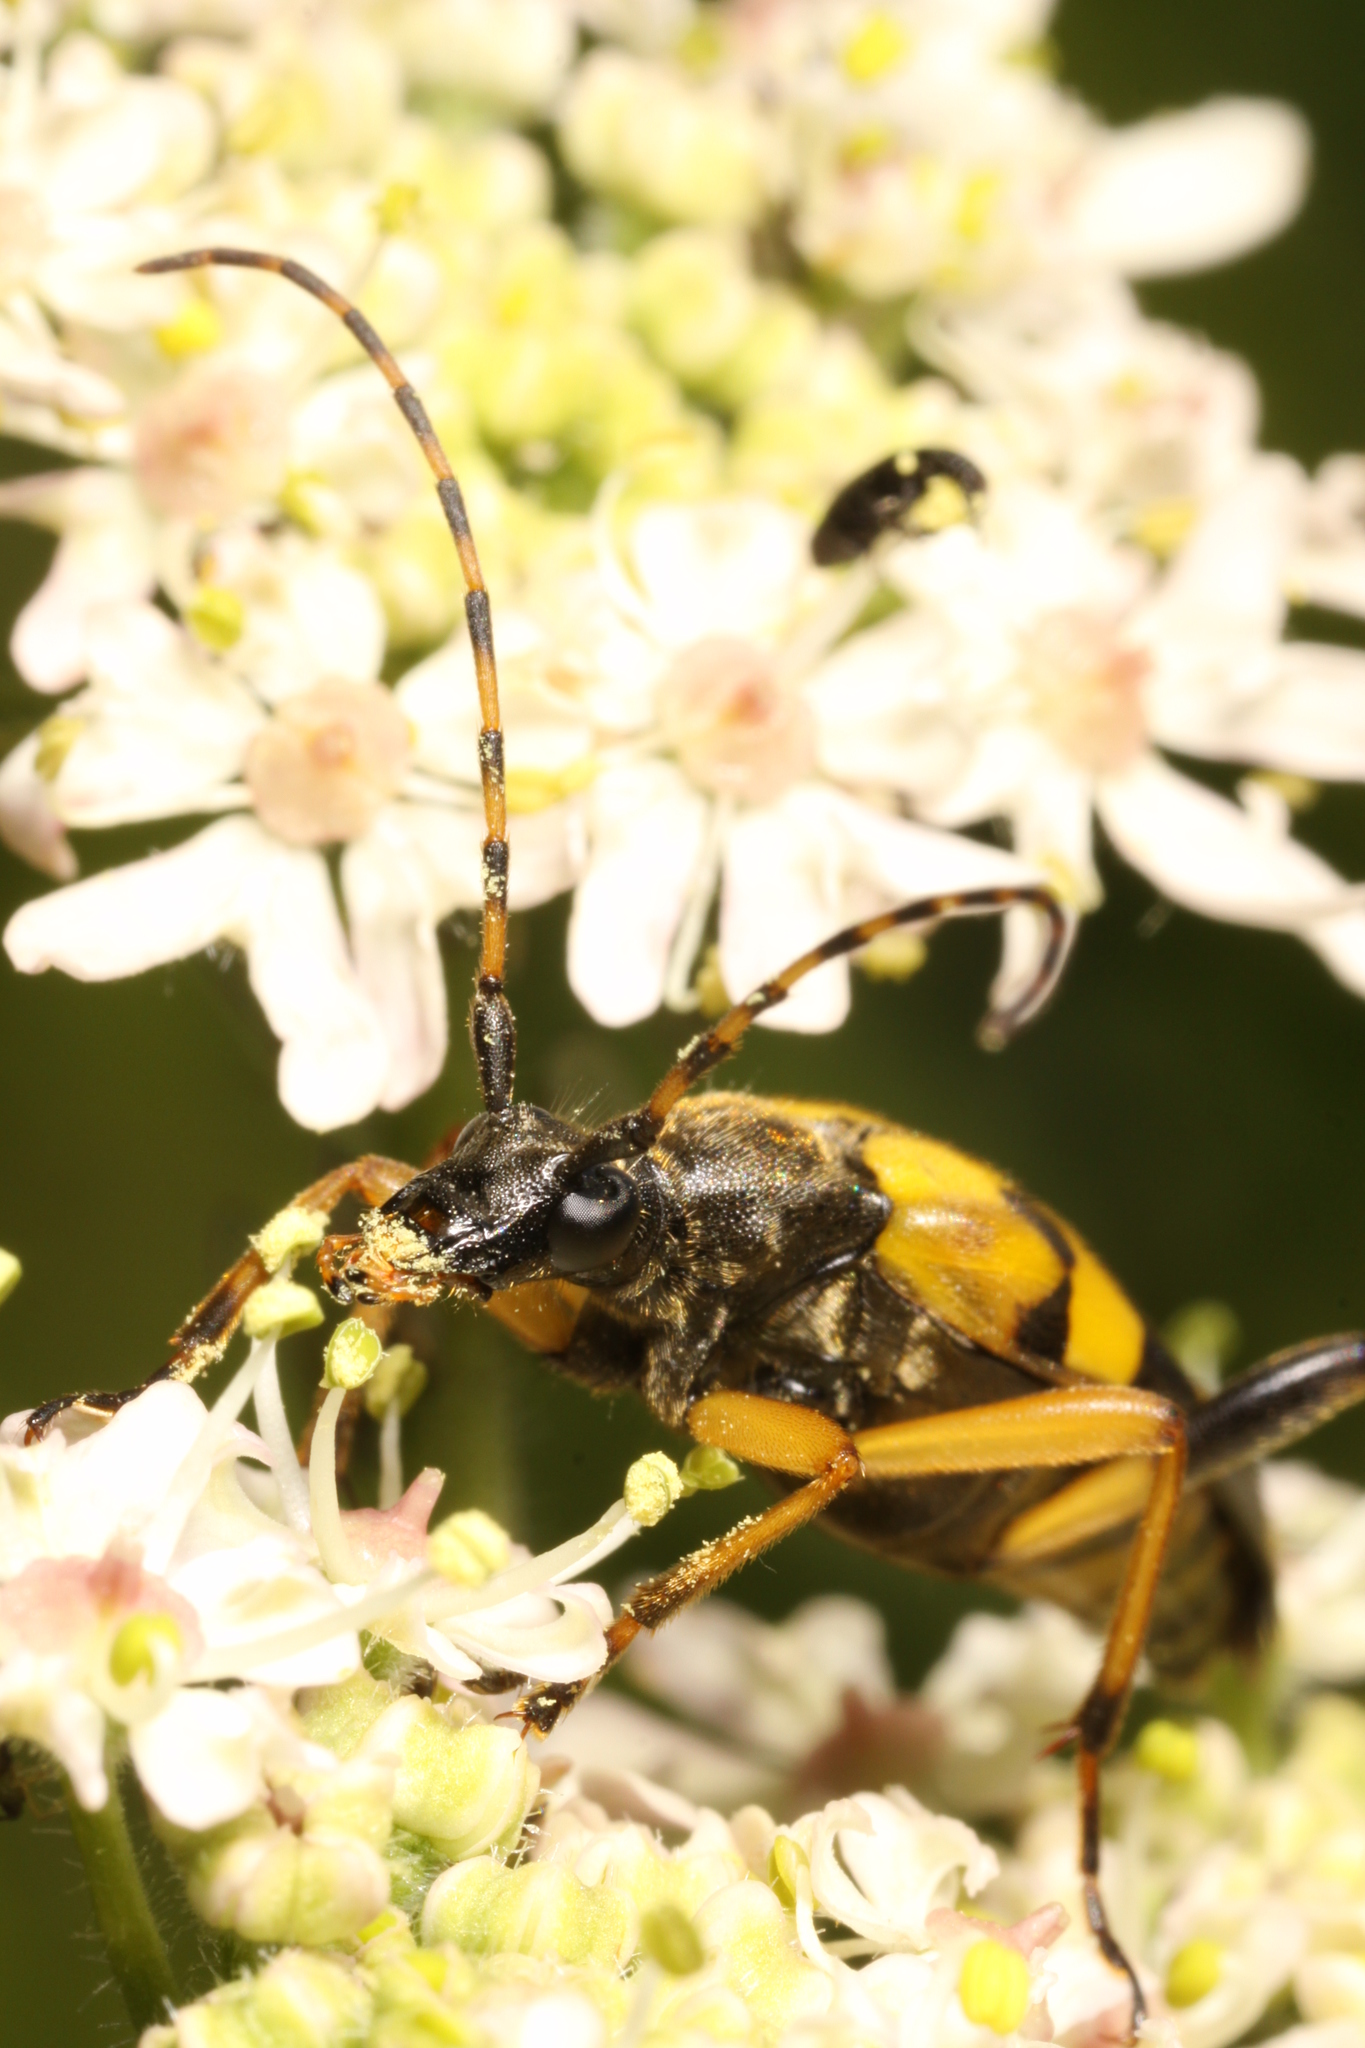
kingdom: Animalia
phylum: Arthropoda
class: Insecta
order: Coleoptera
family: Cerambycidae
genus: Rutpela
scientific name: Rutpela maculata
